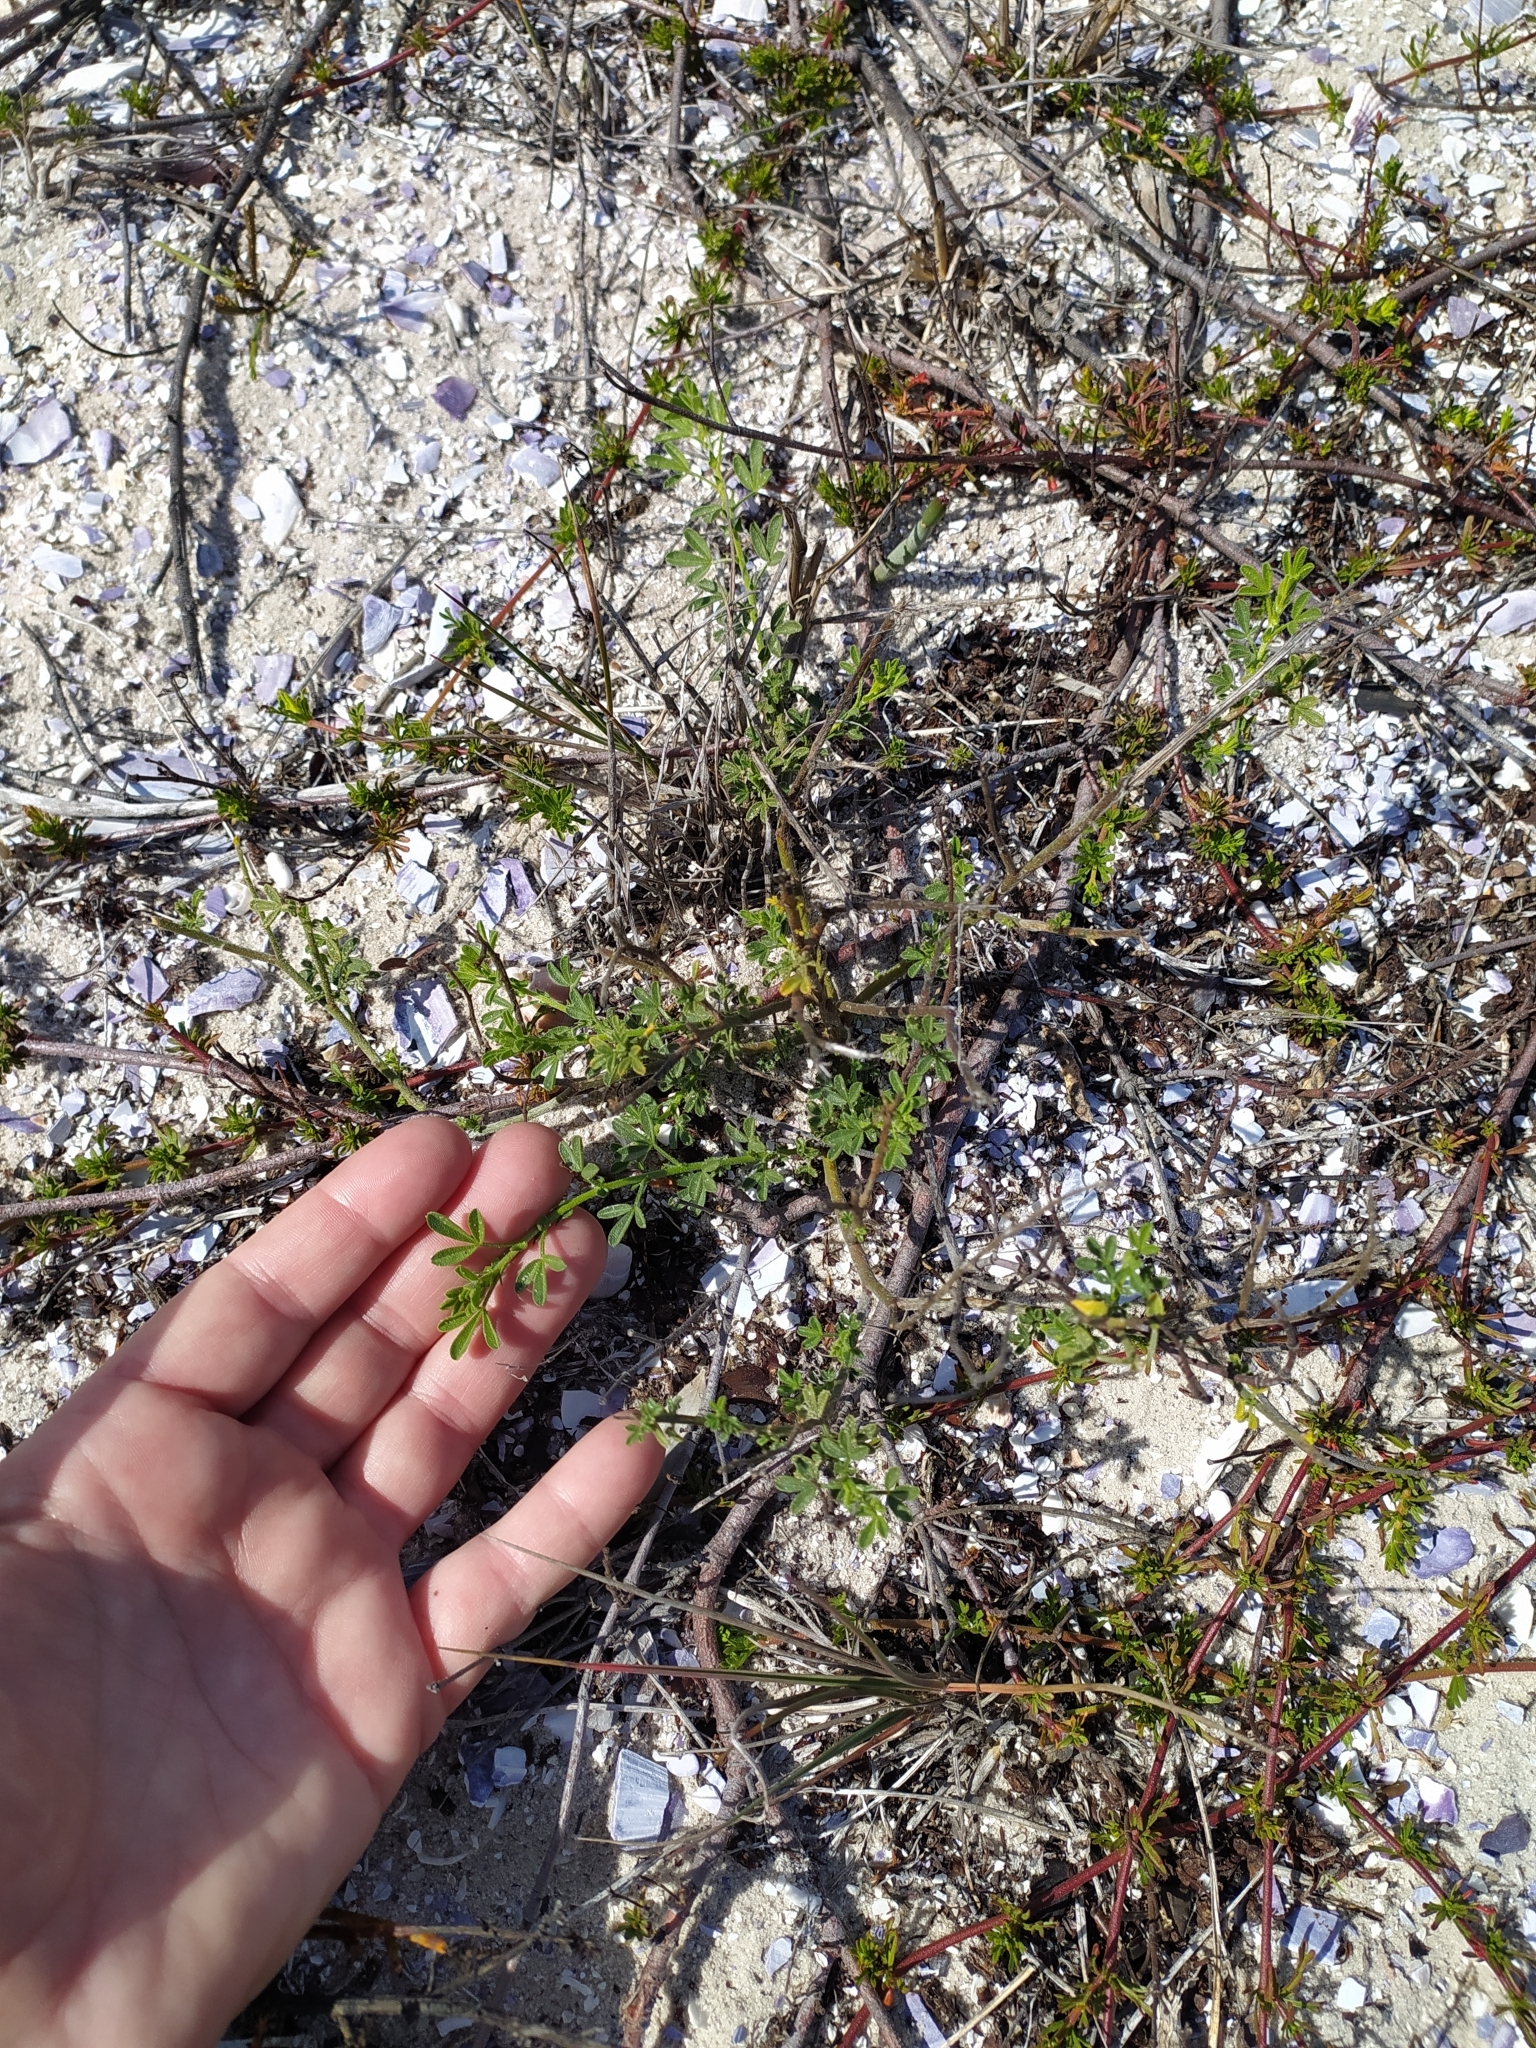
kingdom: Plantae
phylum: Tracheophyta
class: Magnoliopsida
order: Fabales
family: Fabaceae
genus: Psoralea
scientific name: Psoralea repens
